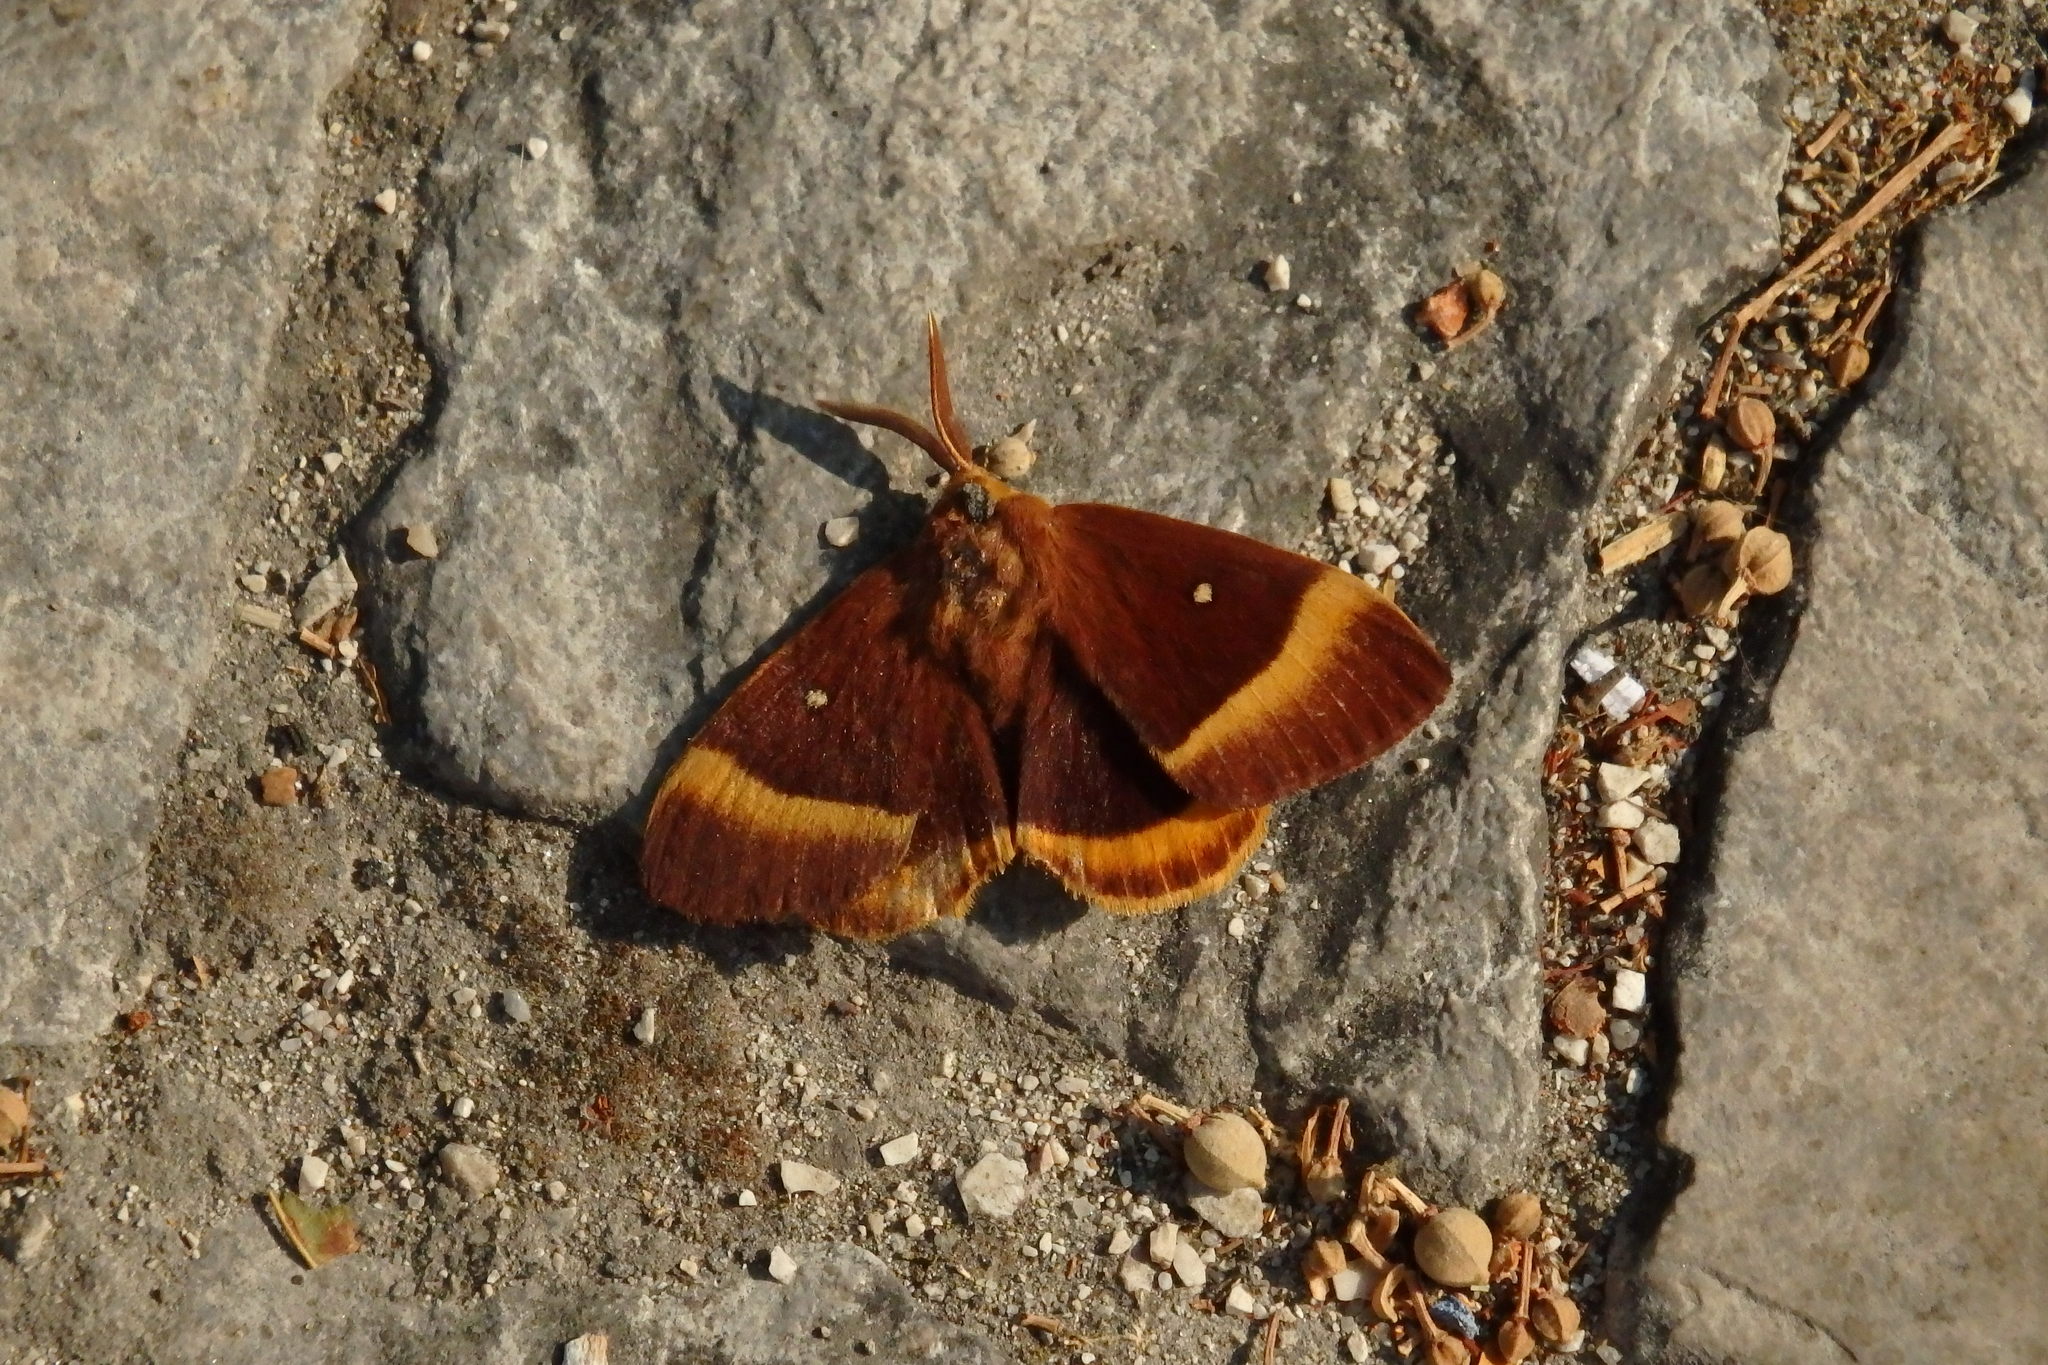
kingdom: Animalia
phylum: Arthropoda
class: Insecta
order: Lepidoptera
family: Lasiocampidae
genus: Lasiocampa
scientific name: Lasiocampa quercus
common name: Oak eggar
